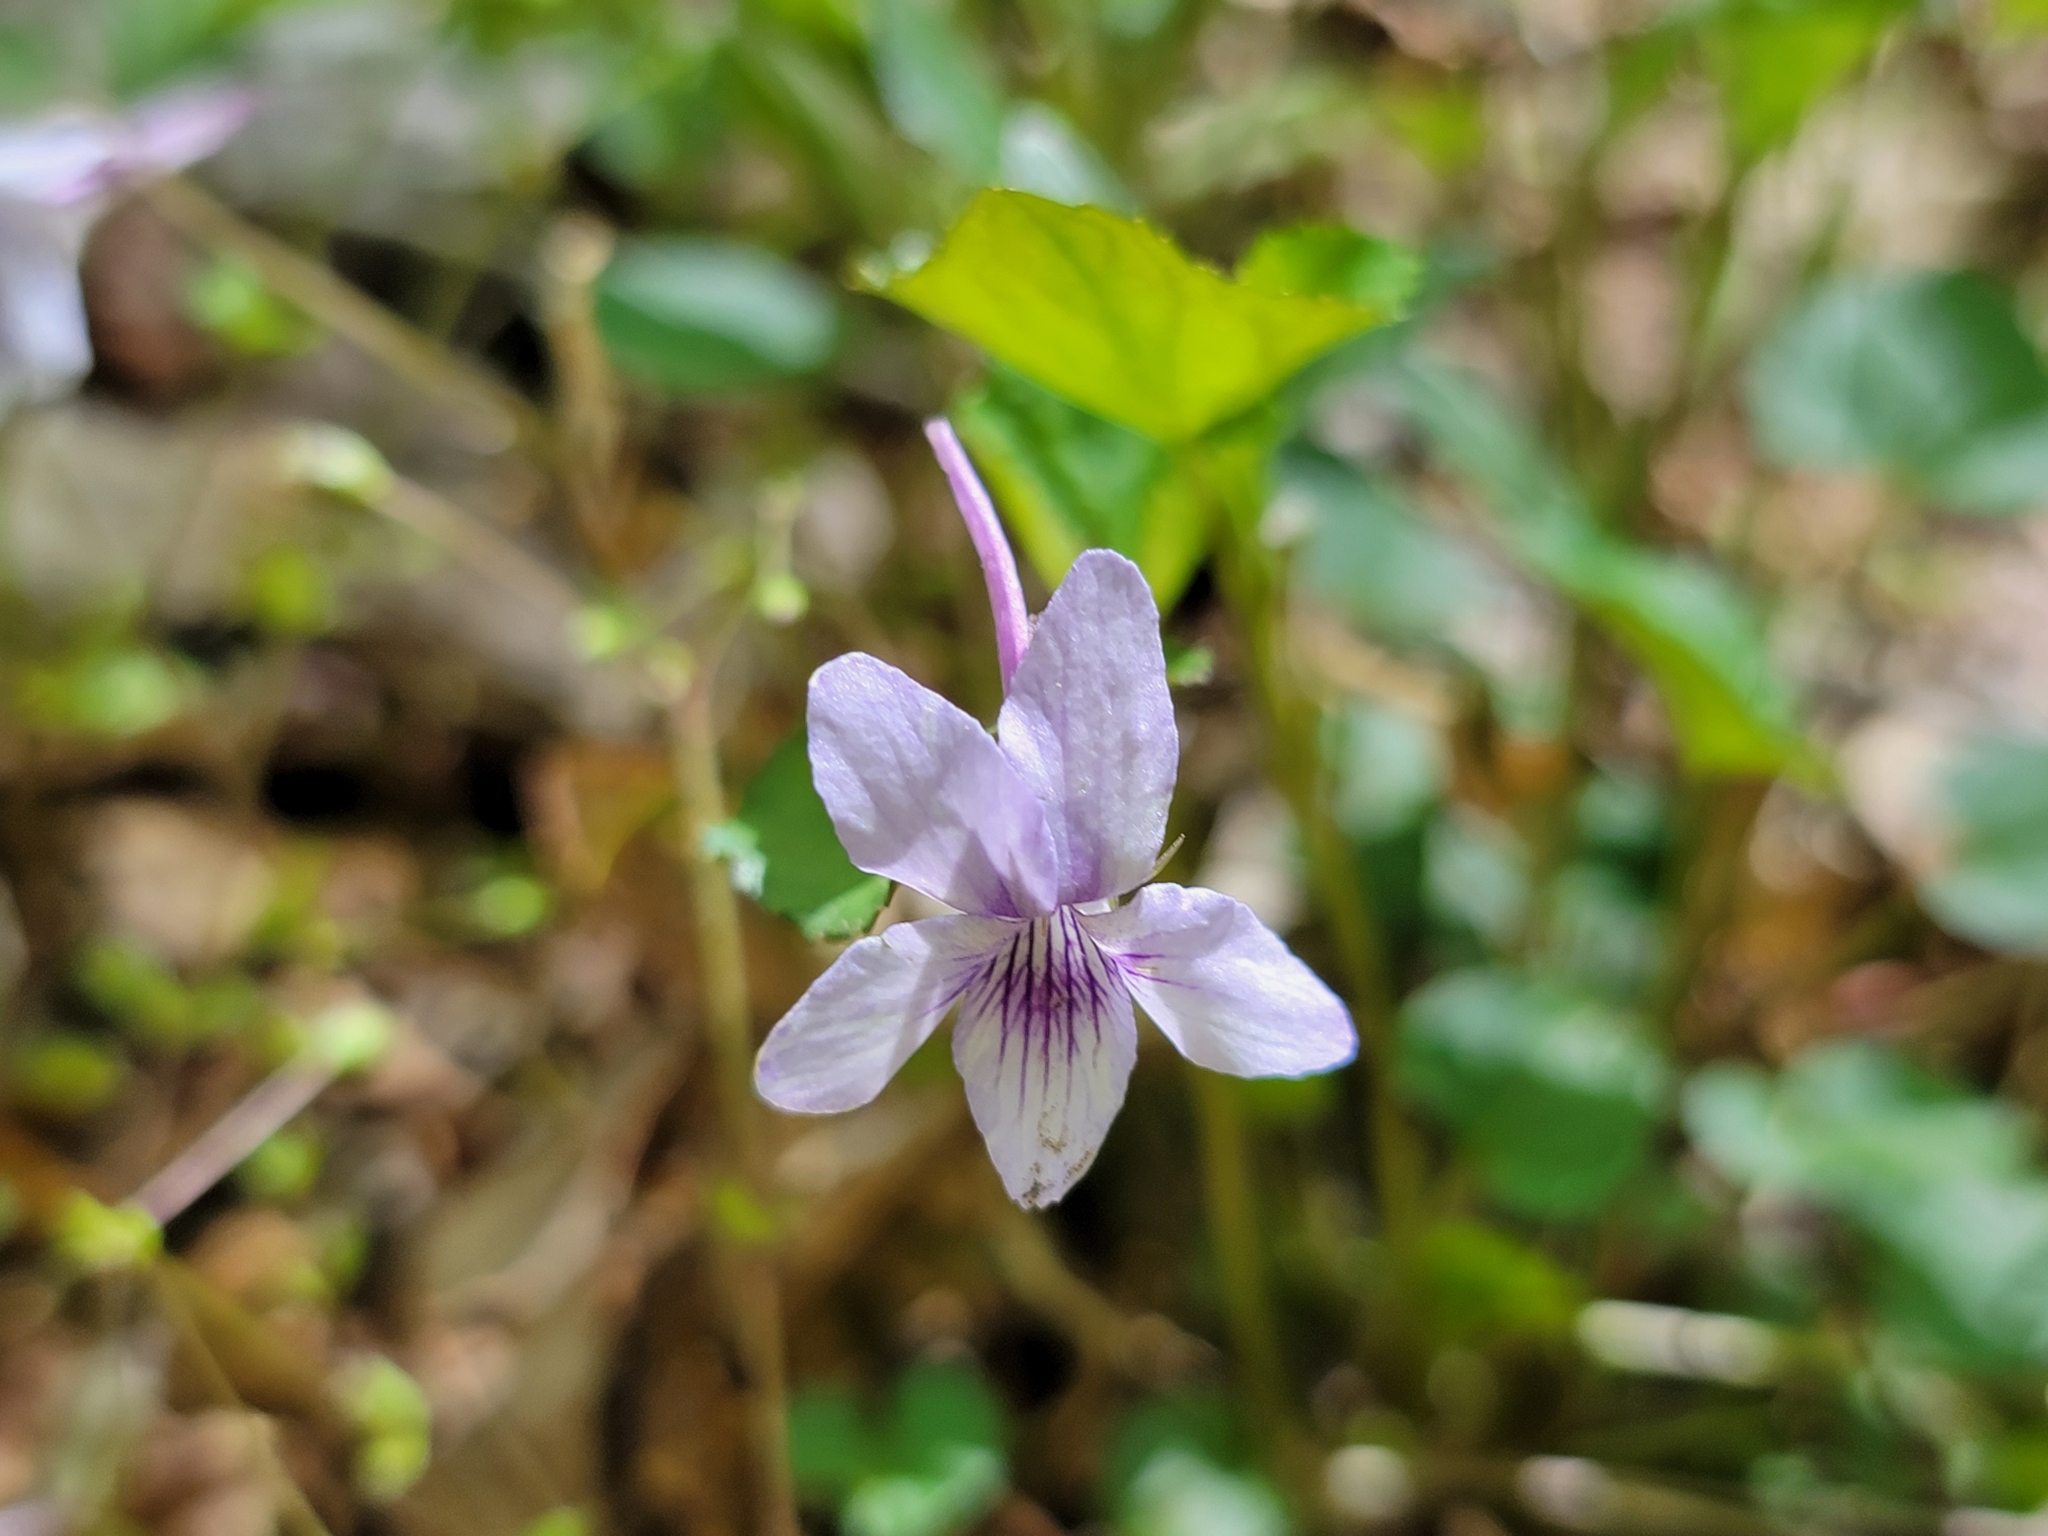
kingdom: Plantae
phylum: Tracheophyta
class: Magnoliopsida
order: Malpighiales
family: Violaceae
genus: Viola
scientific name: Viola rostrata
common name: Long-spur violet
